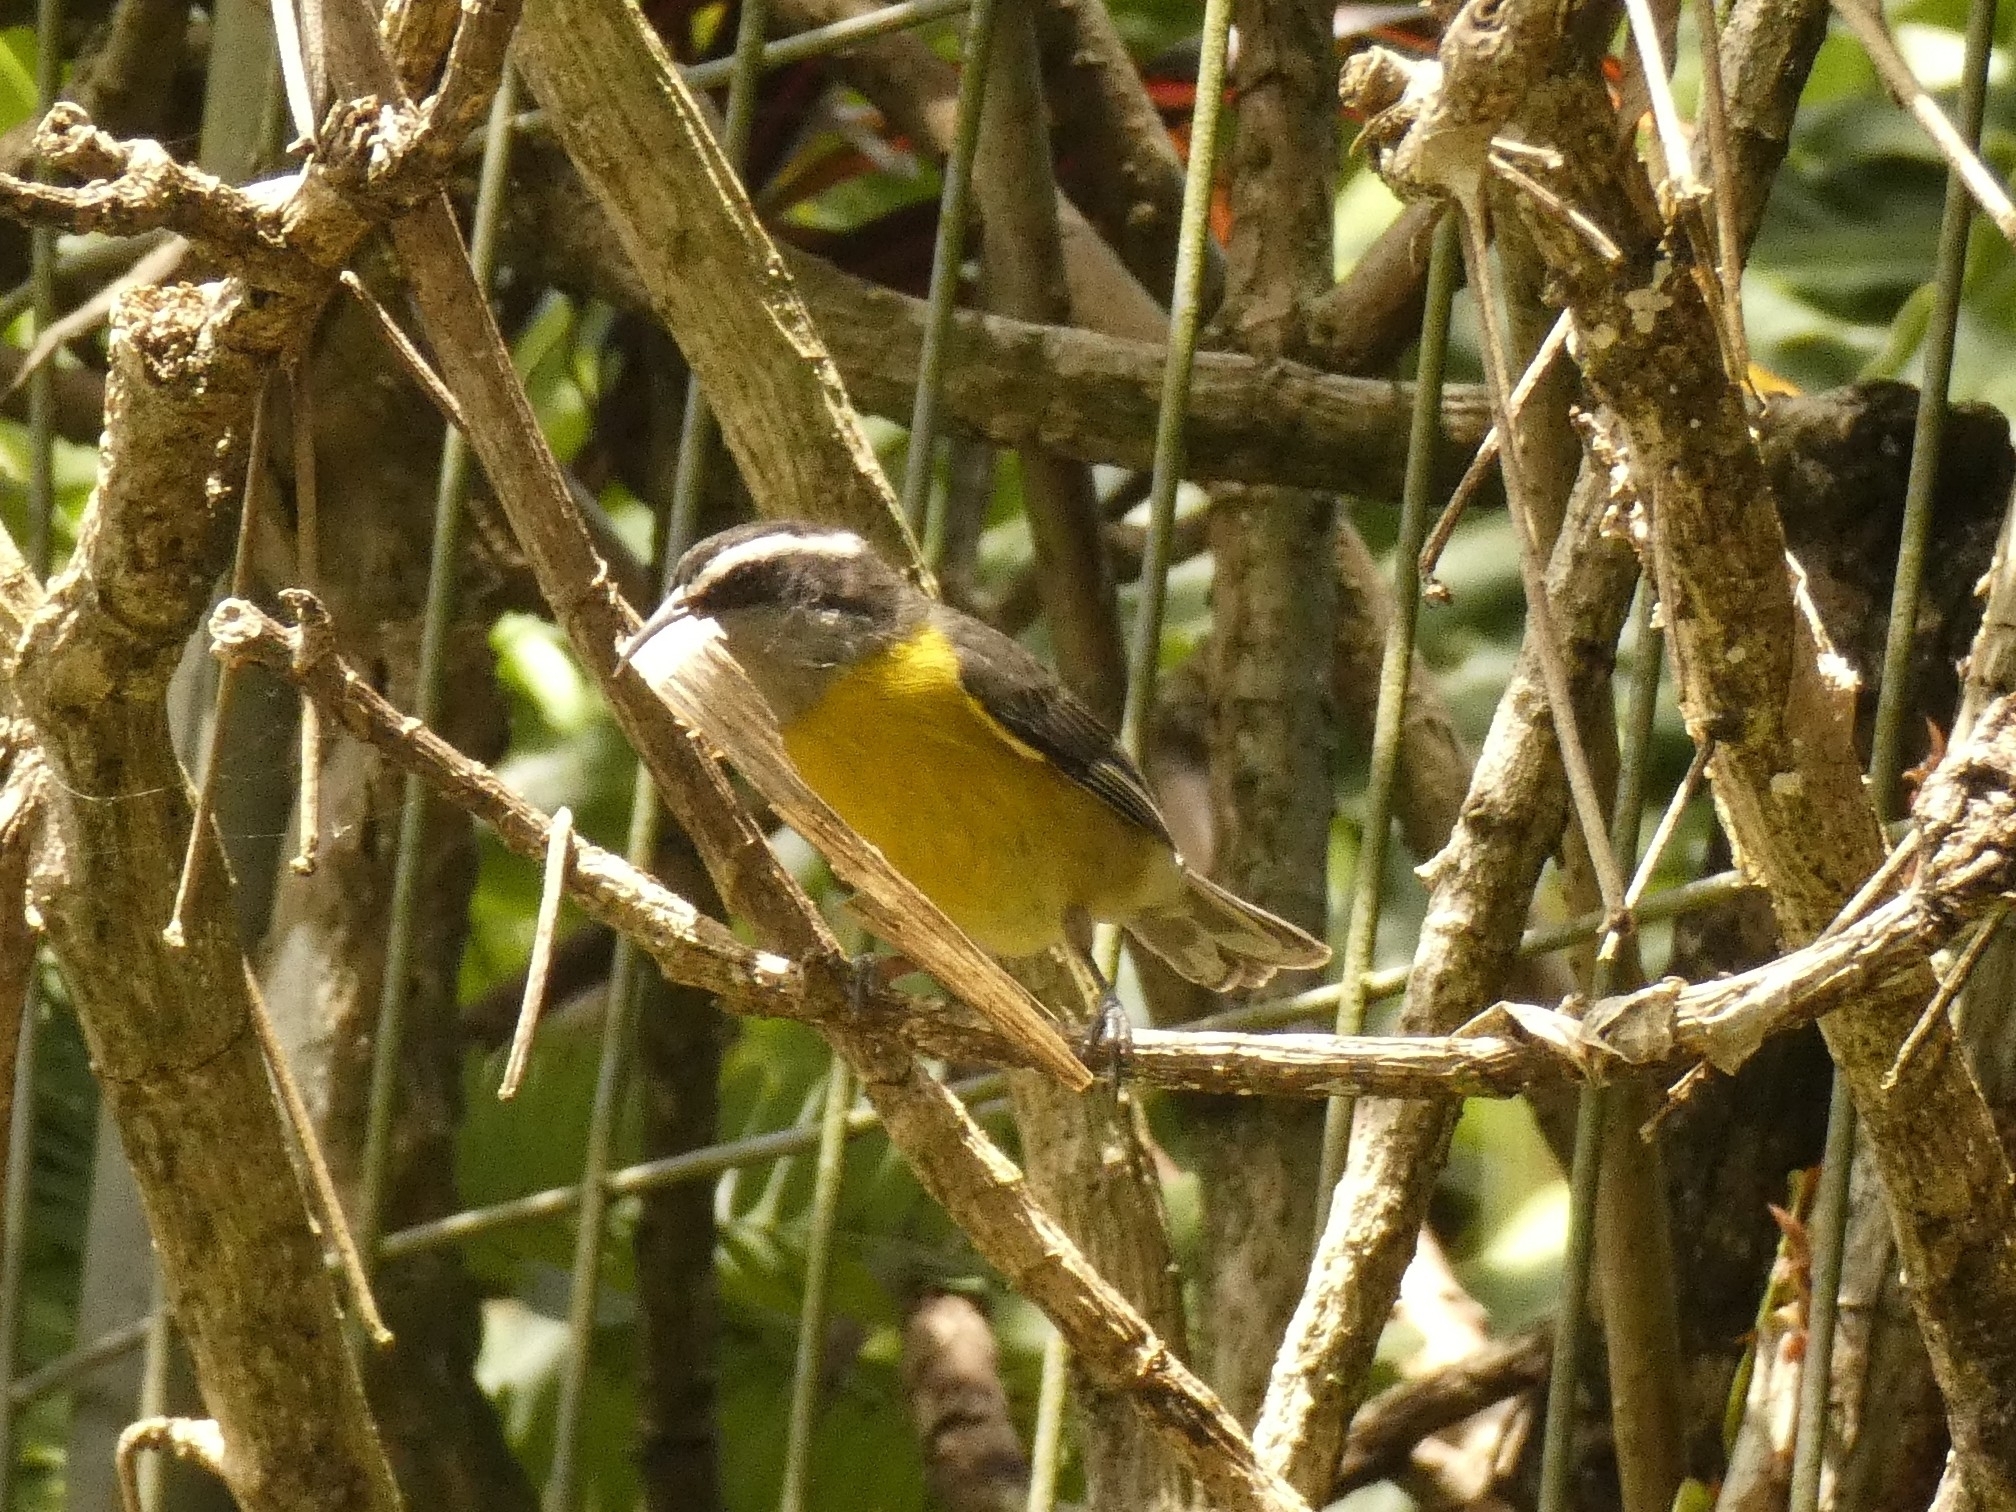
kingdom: Animalia
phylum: Chordata
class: Aves
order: Passeriformes
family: Thraupidae
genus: Coereba
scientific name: Coereba flaveola
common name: Bananaquit
